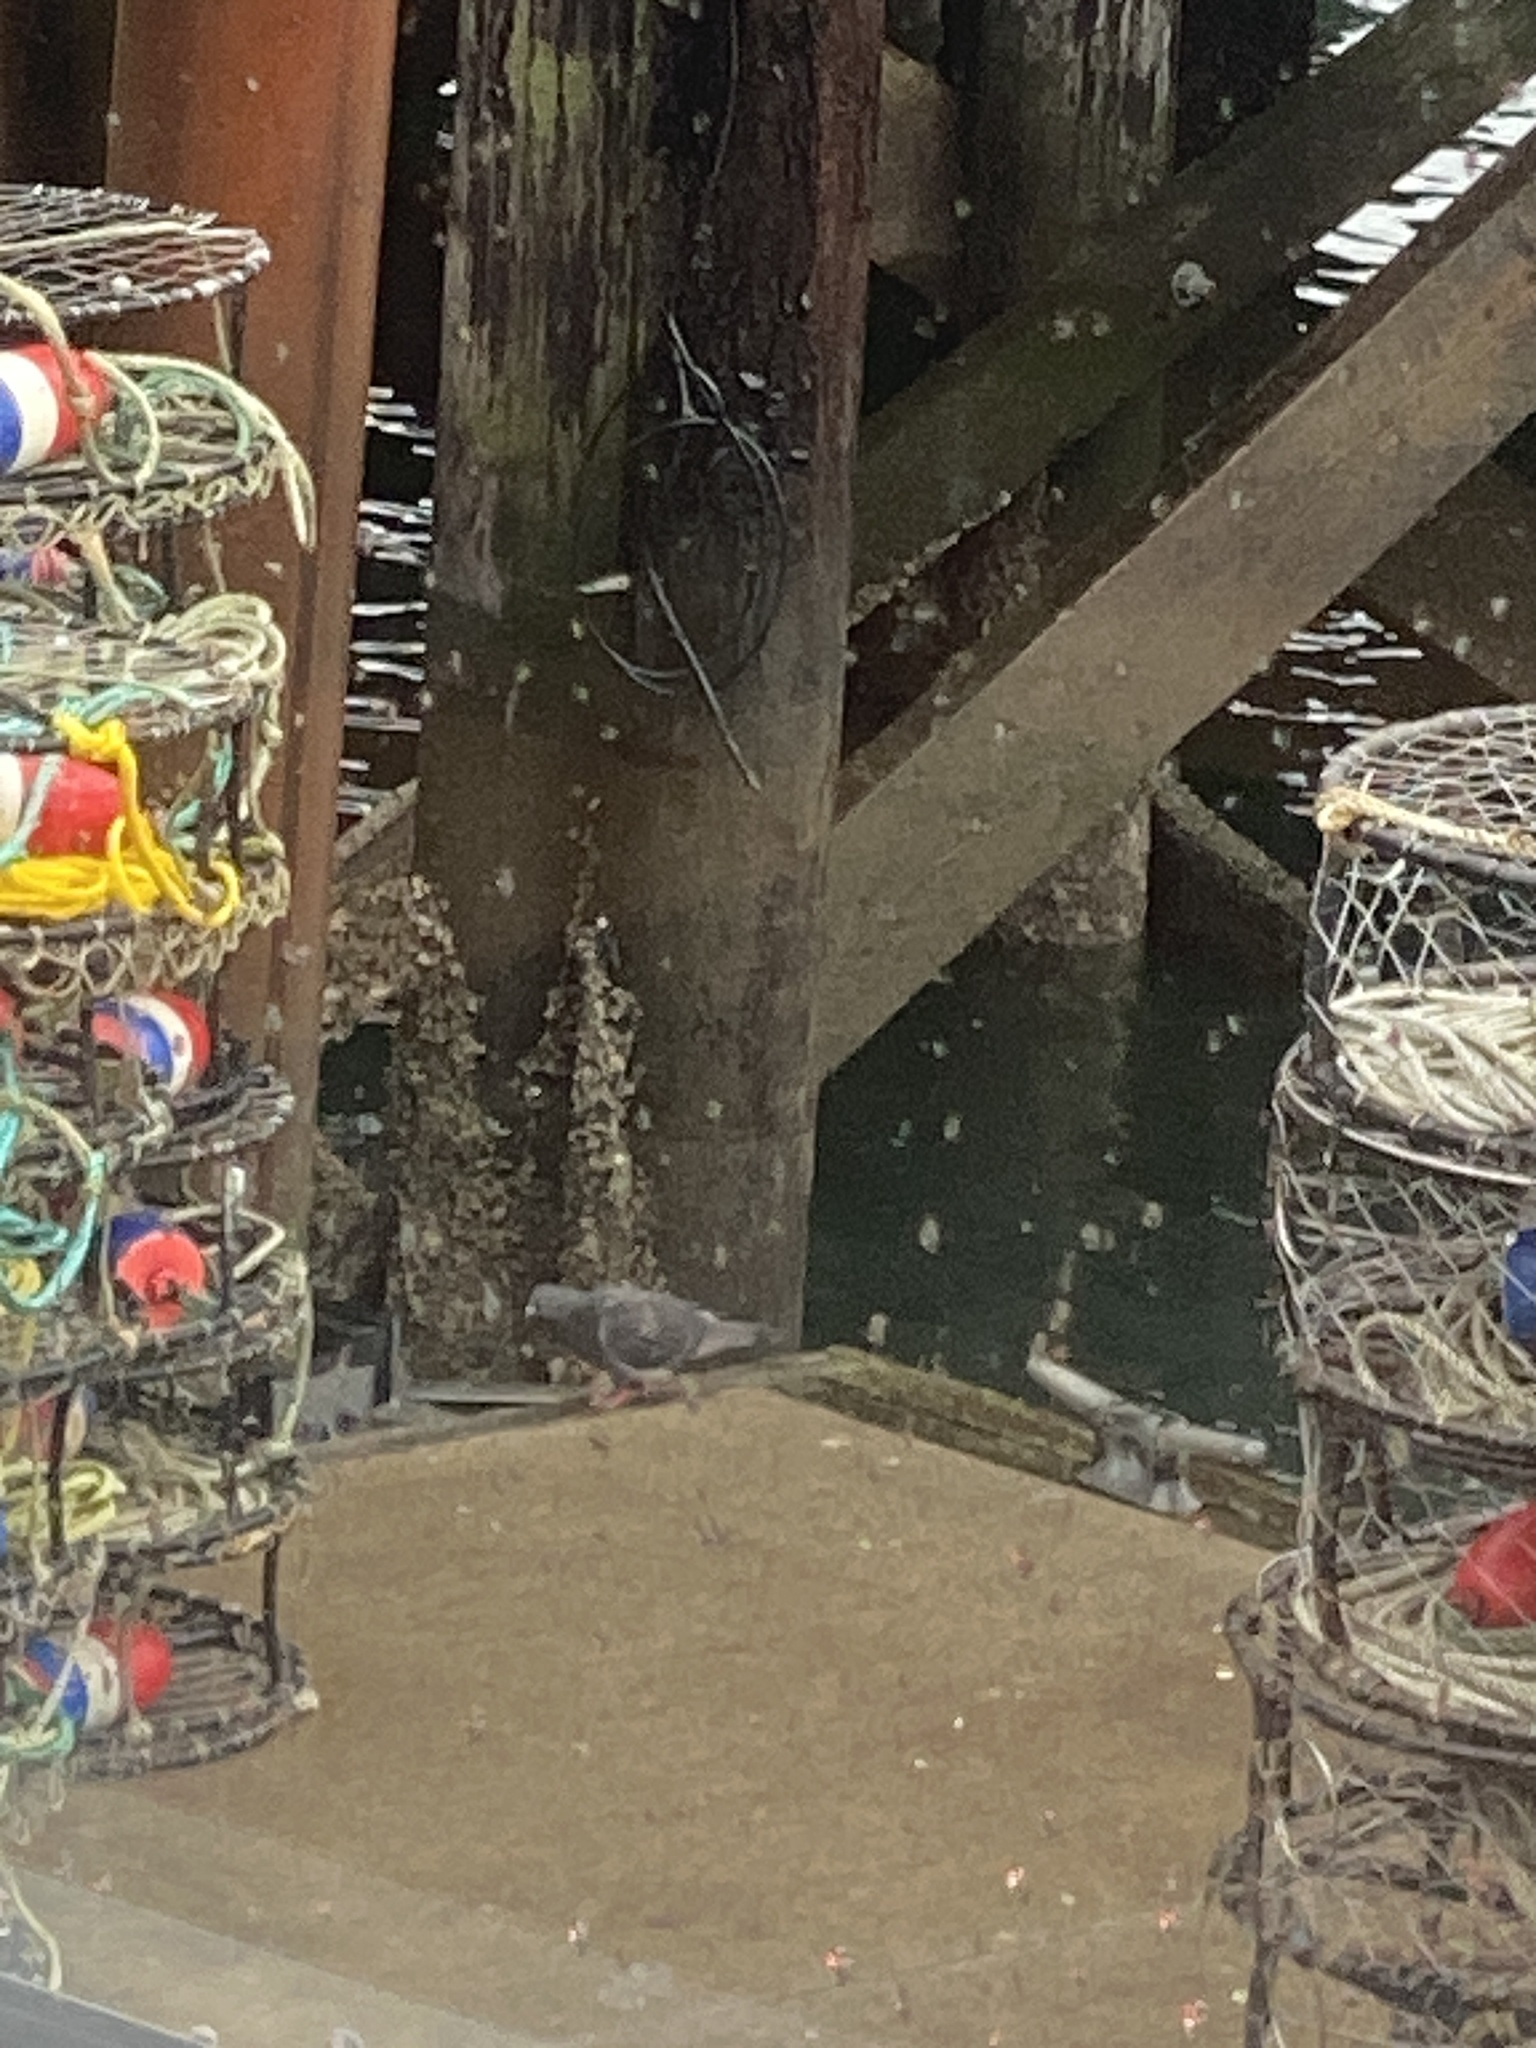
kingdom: Animalia
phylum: Chordata
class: Aves
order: Columbiformes
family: Columbidae
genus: Columba
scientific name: Columba livia
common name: Rock pigeon
